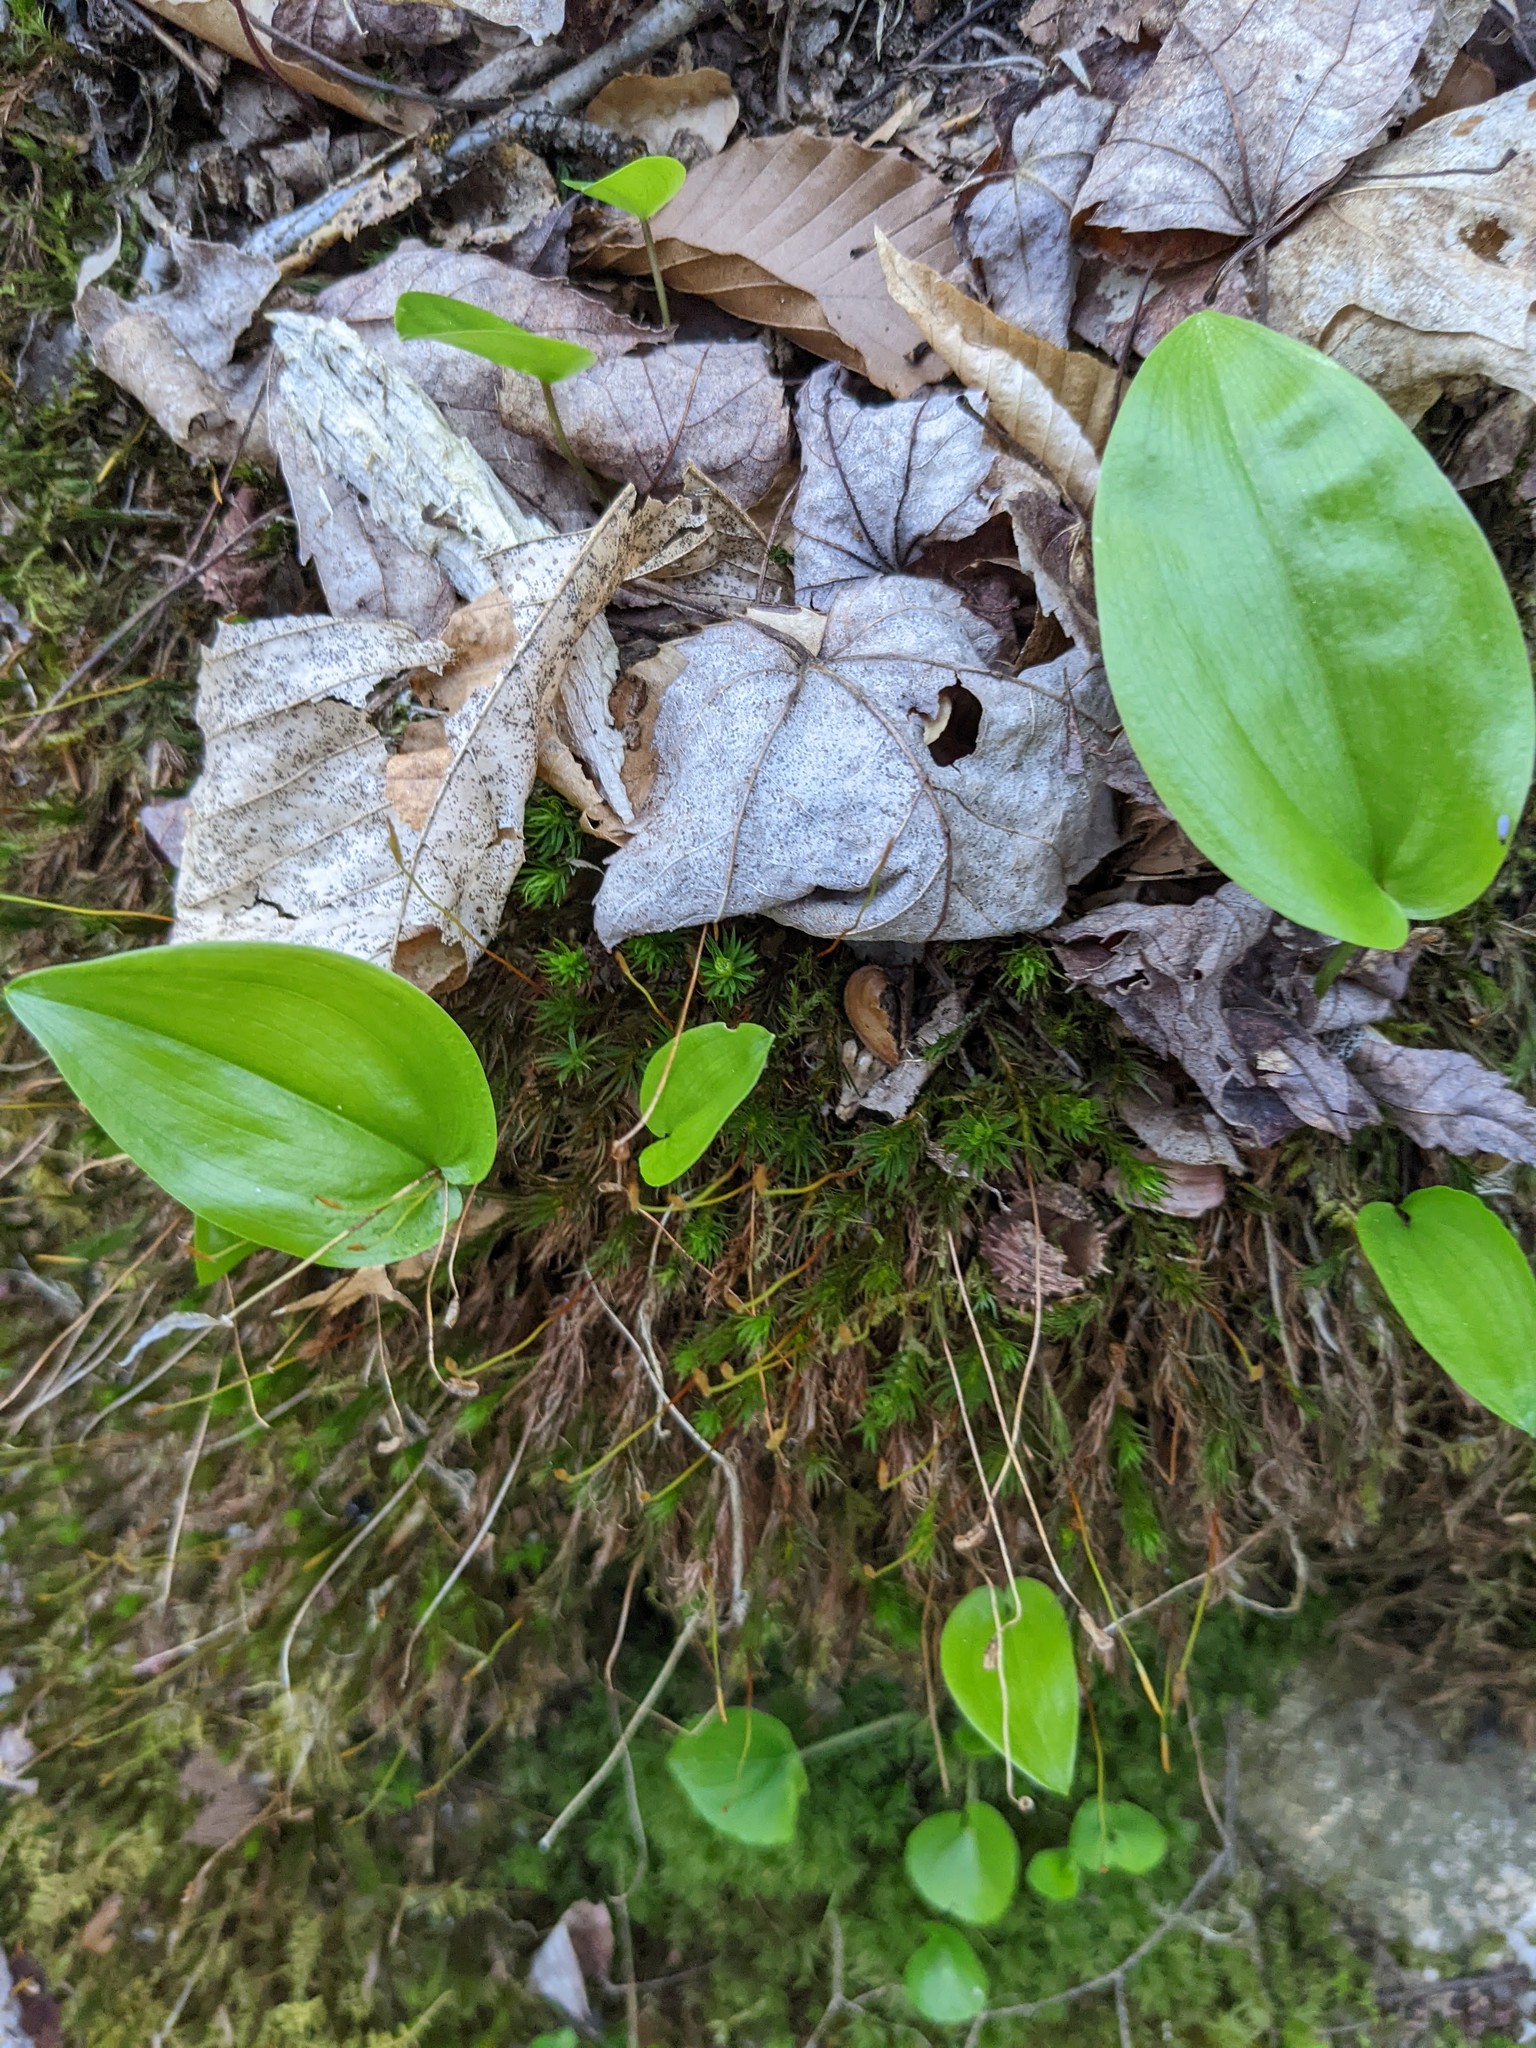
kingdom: Plantae
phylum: Tracheophyta
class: Liliopsida
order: Asparagales
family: Asparagaceae
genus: Maianthemum
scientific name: Maianthemum canadense
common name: False lily-of-the-valley
